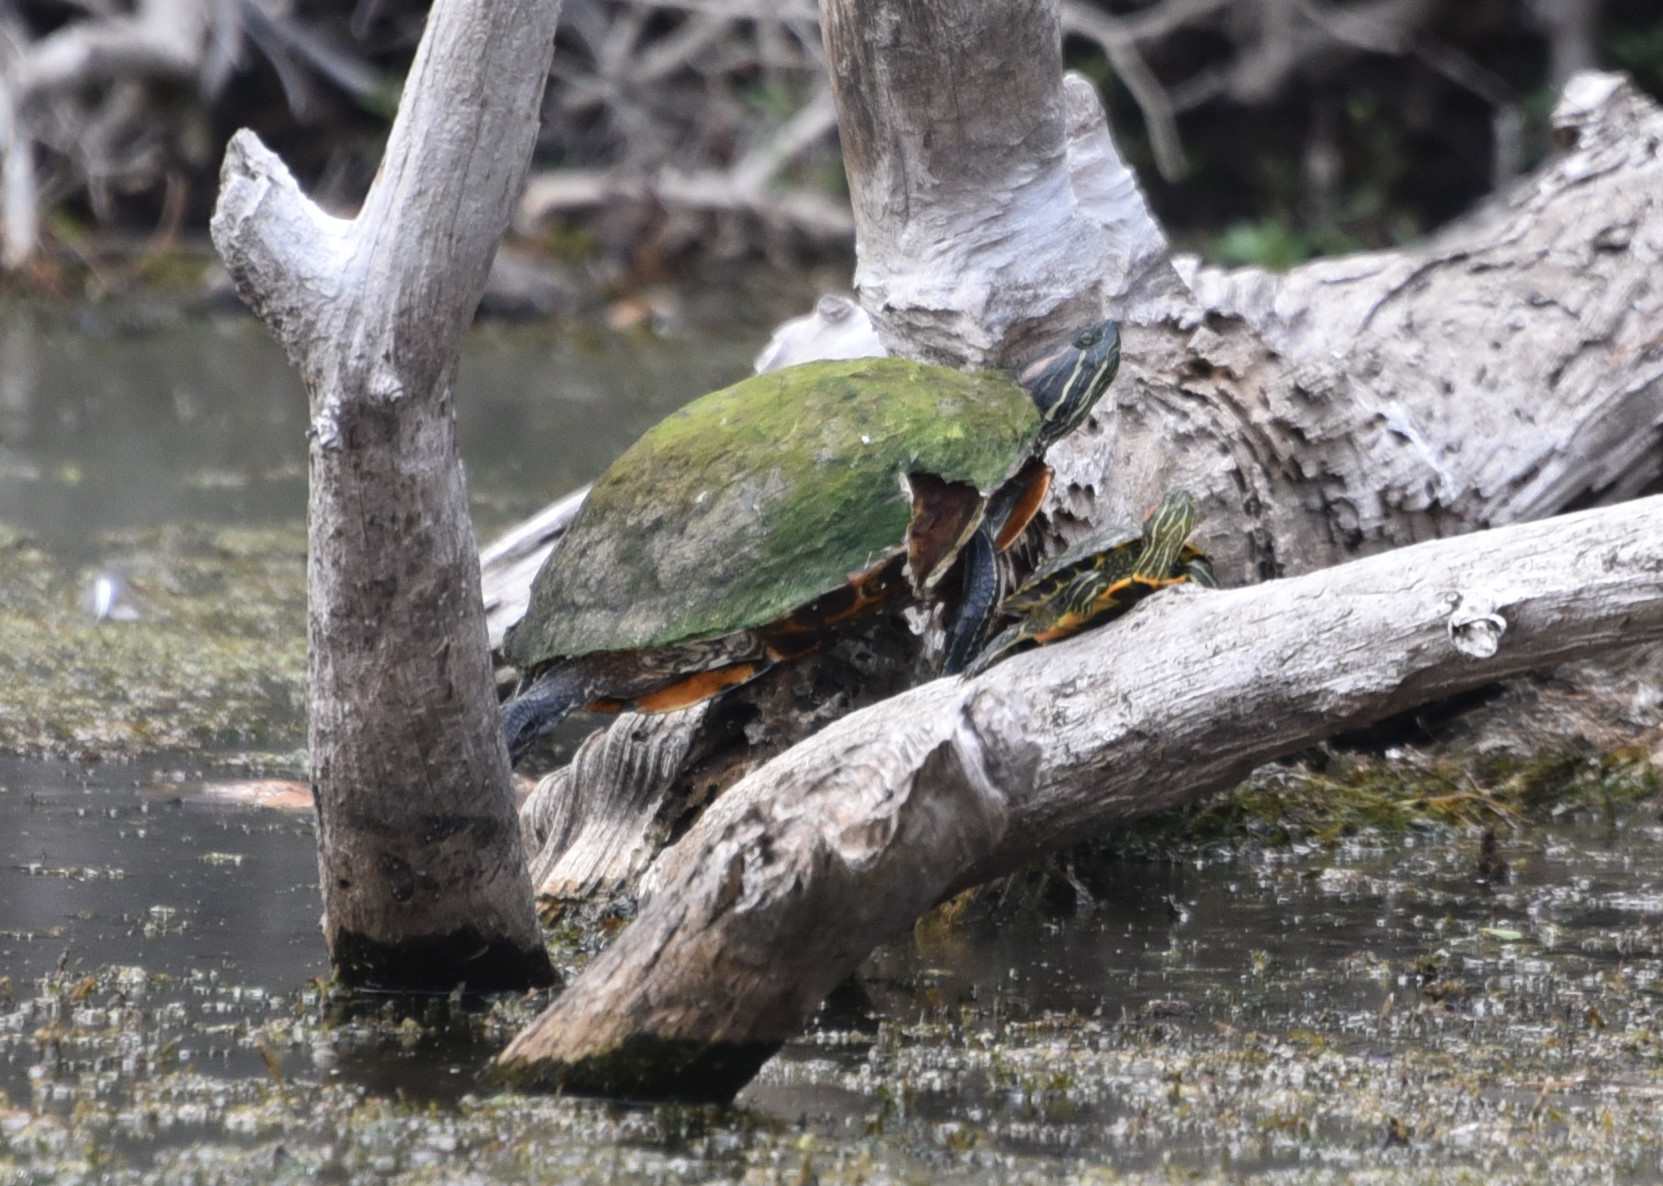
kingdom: Animalia
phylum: Chordata
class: Testudines
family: Emydidae
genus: Trachemys
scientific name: Trachemys scripta
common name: Slider
